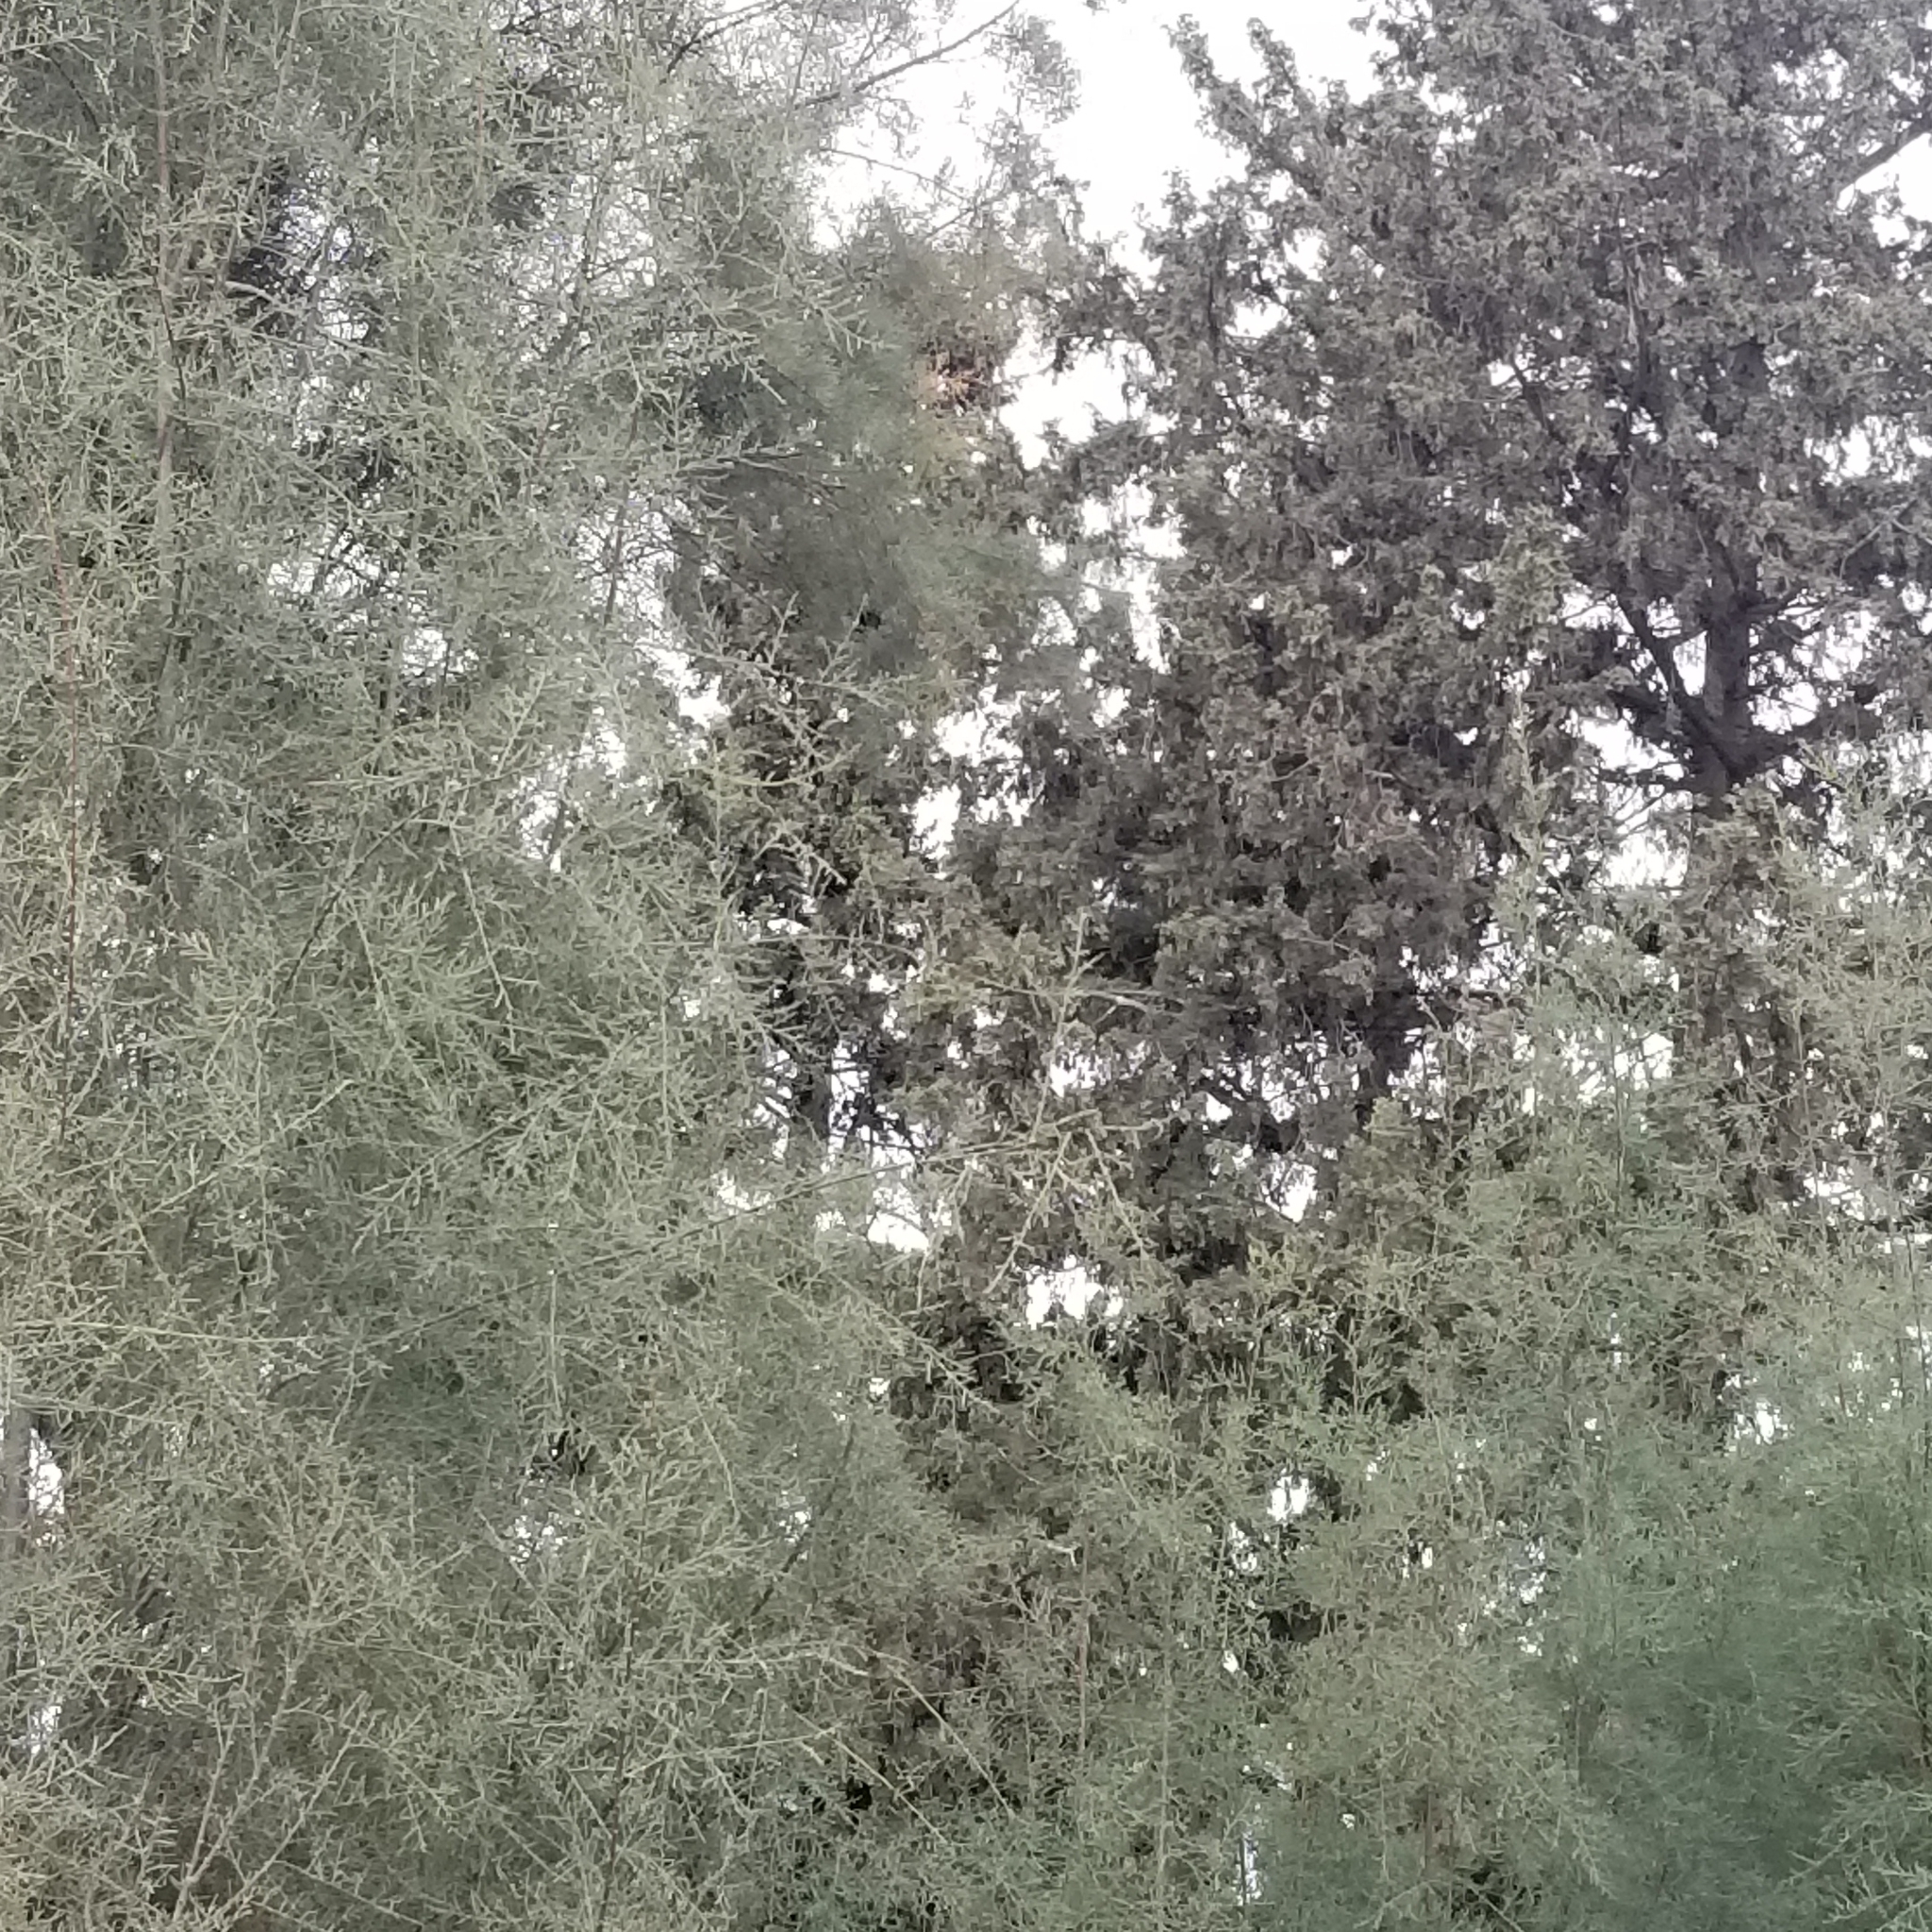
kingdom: Animalia
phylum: Chordata
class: Aves
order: Pelecaniformes
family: Ardeidae
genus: Ardea
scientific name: Ardea cinerea
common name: Grey heron
